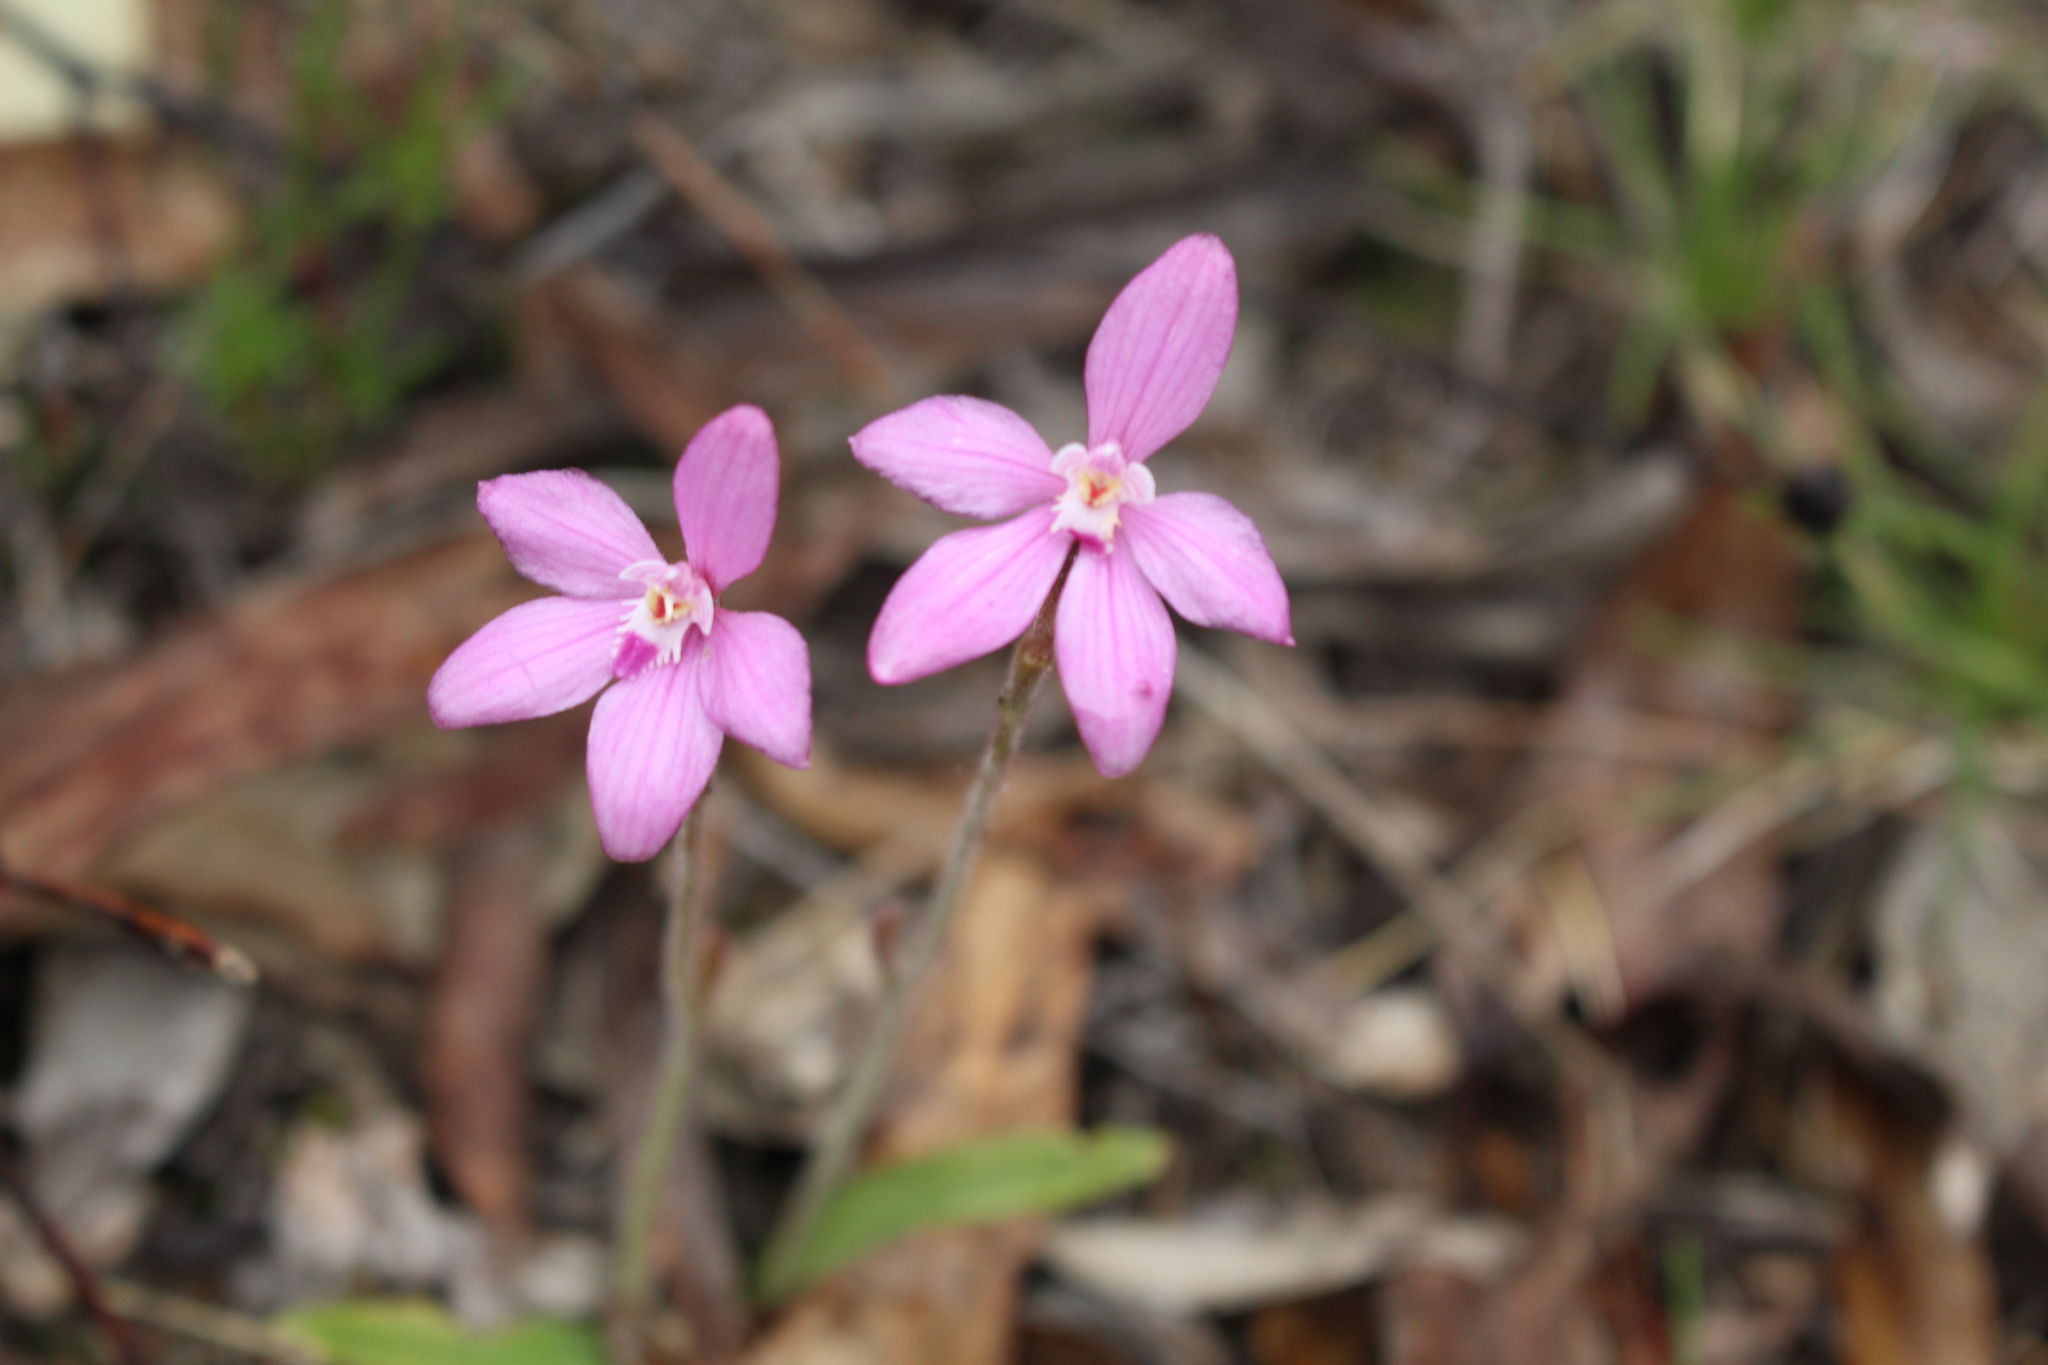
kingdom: Plantae
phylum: Tracheophyta
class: Liliopsida
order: Asparagales
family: Orchidaceae
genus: Caladenia
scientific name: Caladenia reptans
